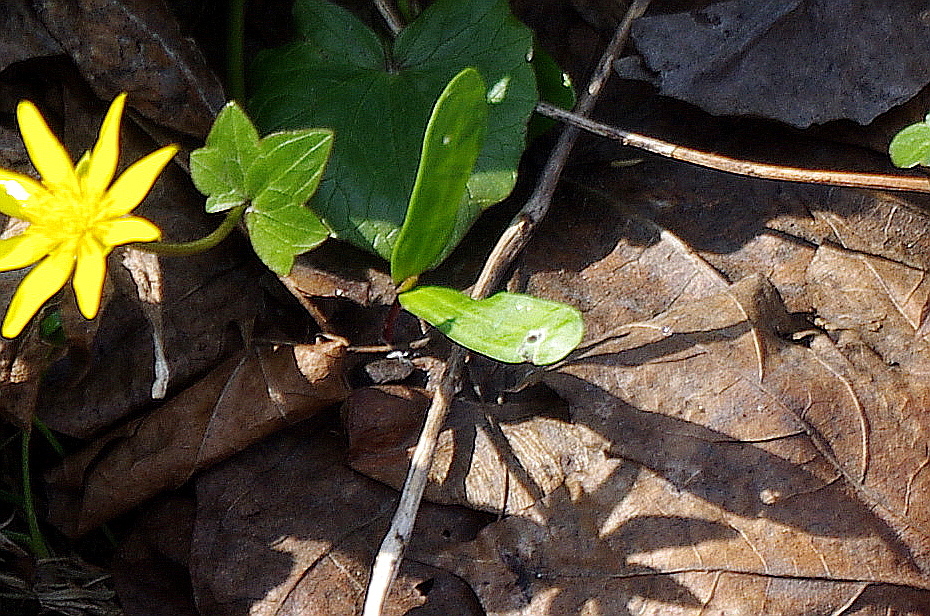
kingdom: Plantae
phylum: Tracheophyta
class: Magnoliopsida
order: Sapindales
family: Sapindaceae
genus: Acer
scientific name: Acer platanoides
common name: Norway maple
